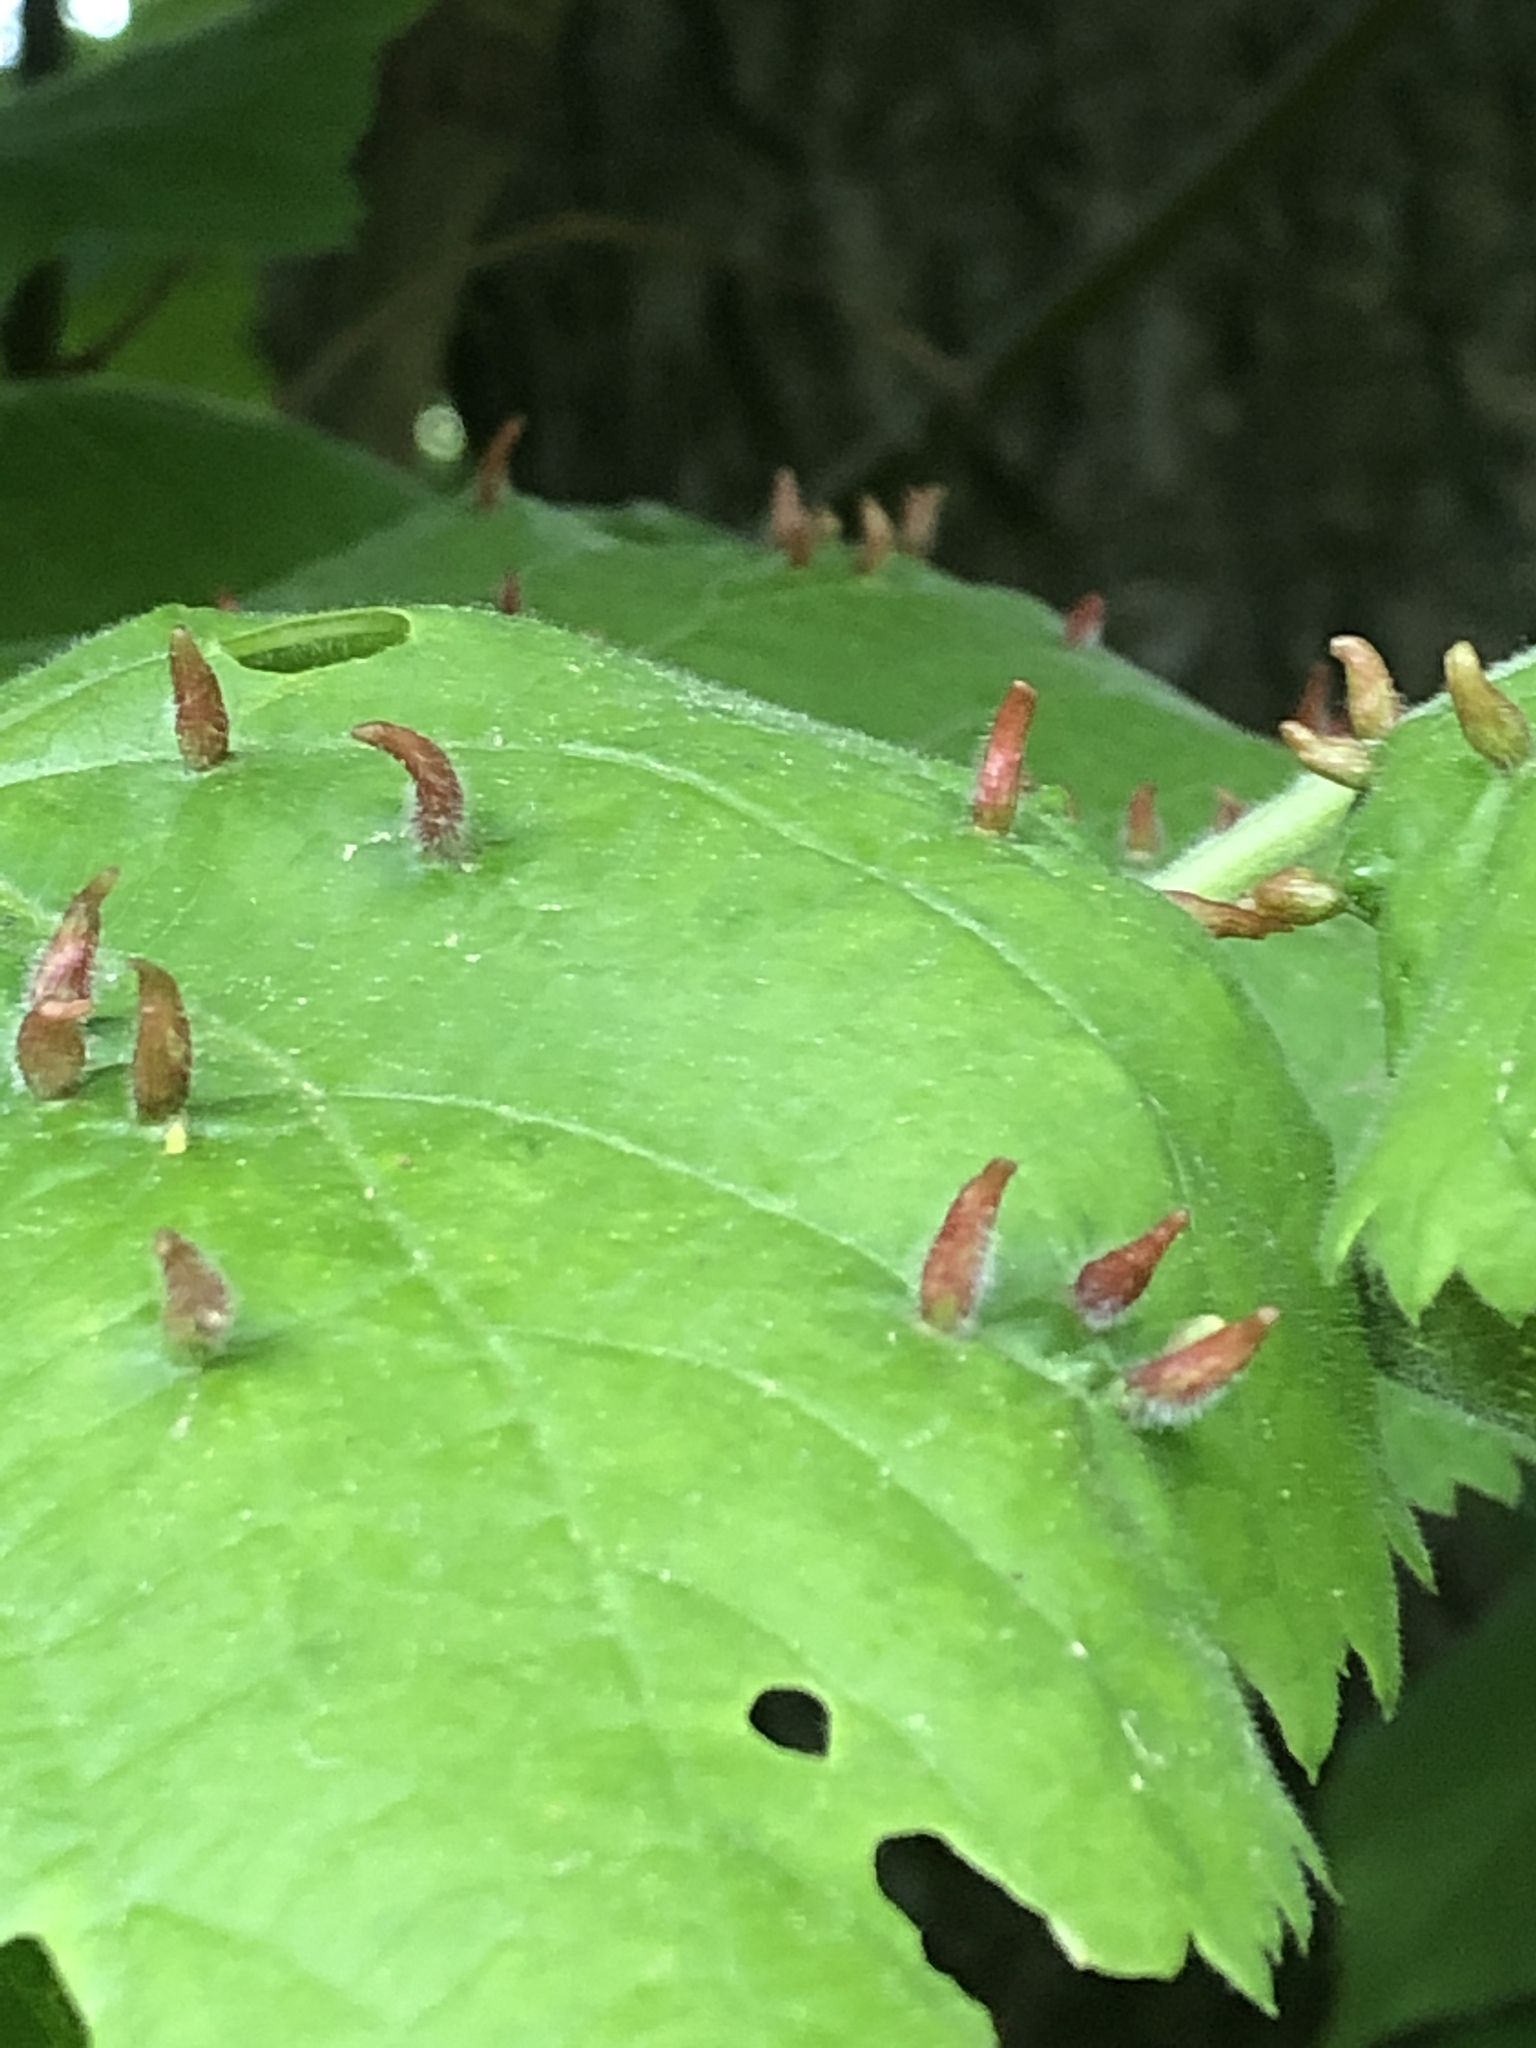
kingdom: Animalia
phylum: Arthropoda
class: Arachnida
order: Trombidiformes
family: Eriophyidae
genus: Eriophyes
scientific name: Eriophyes tiliae
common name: Red nail gall mite
